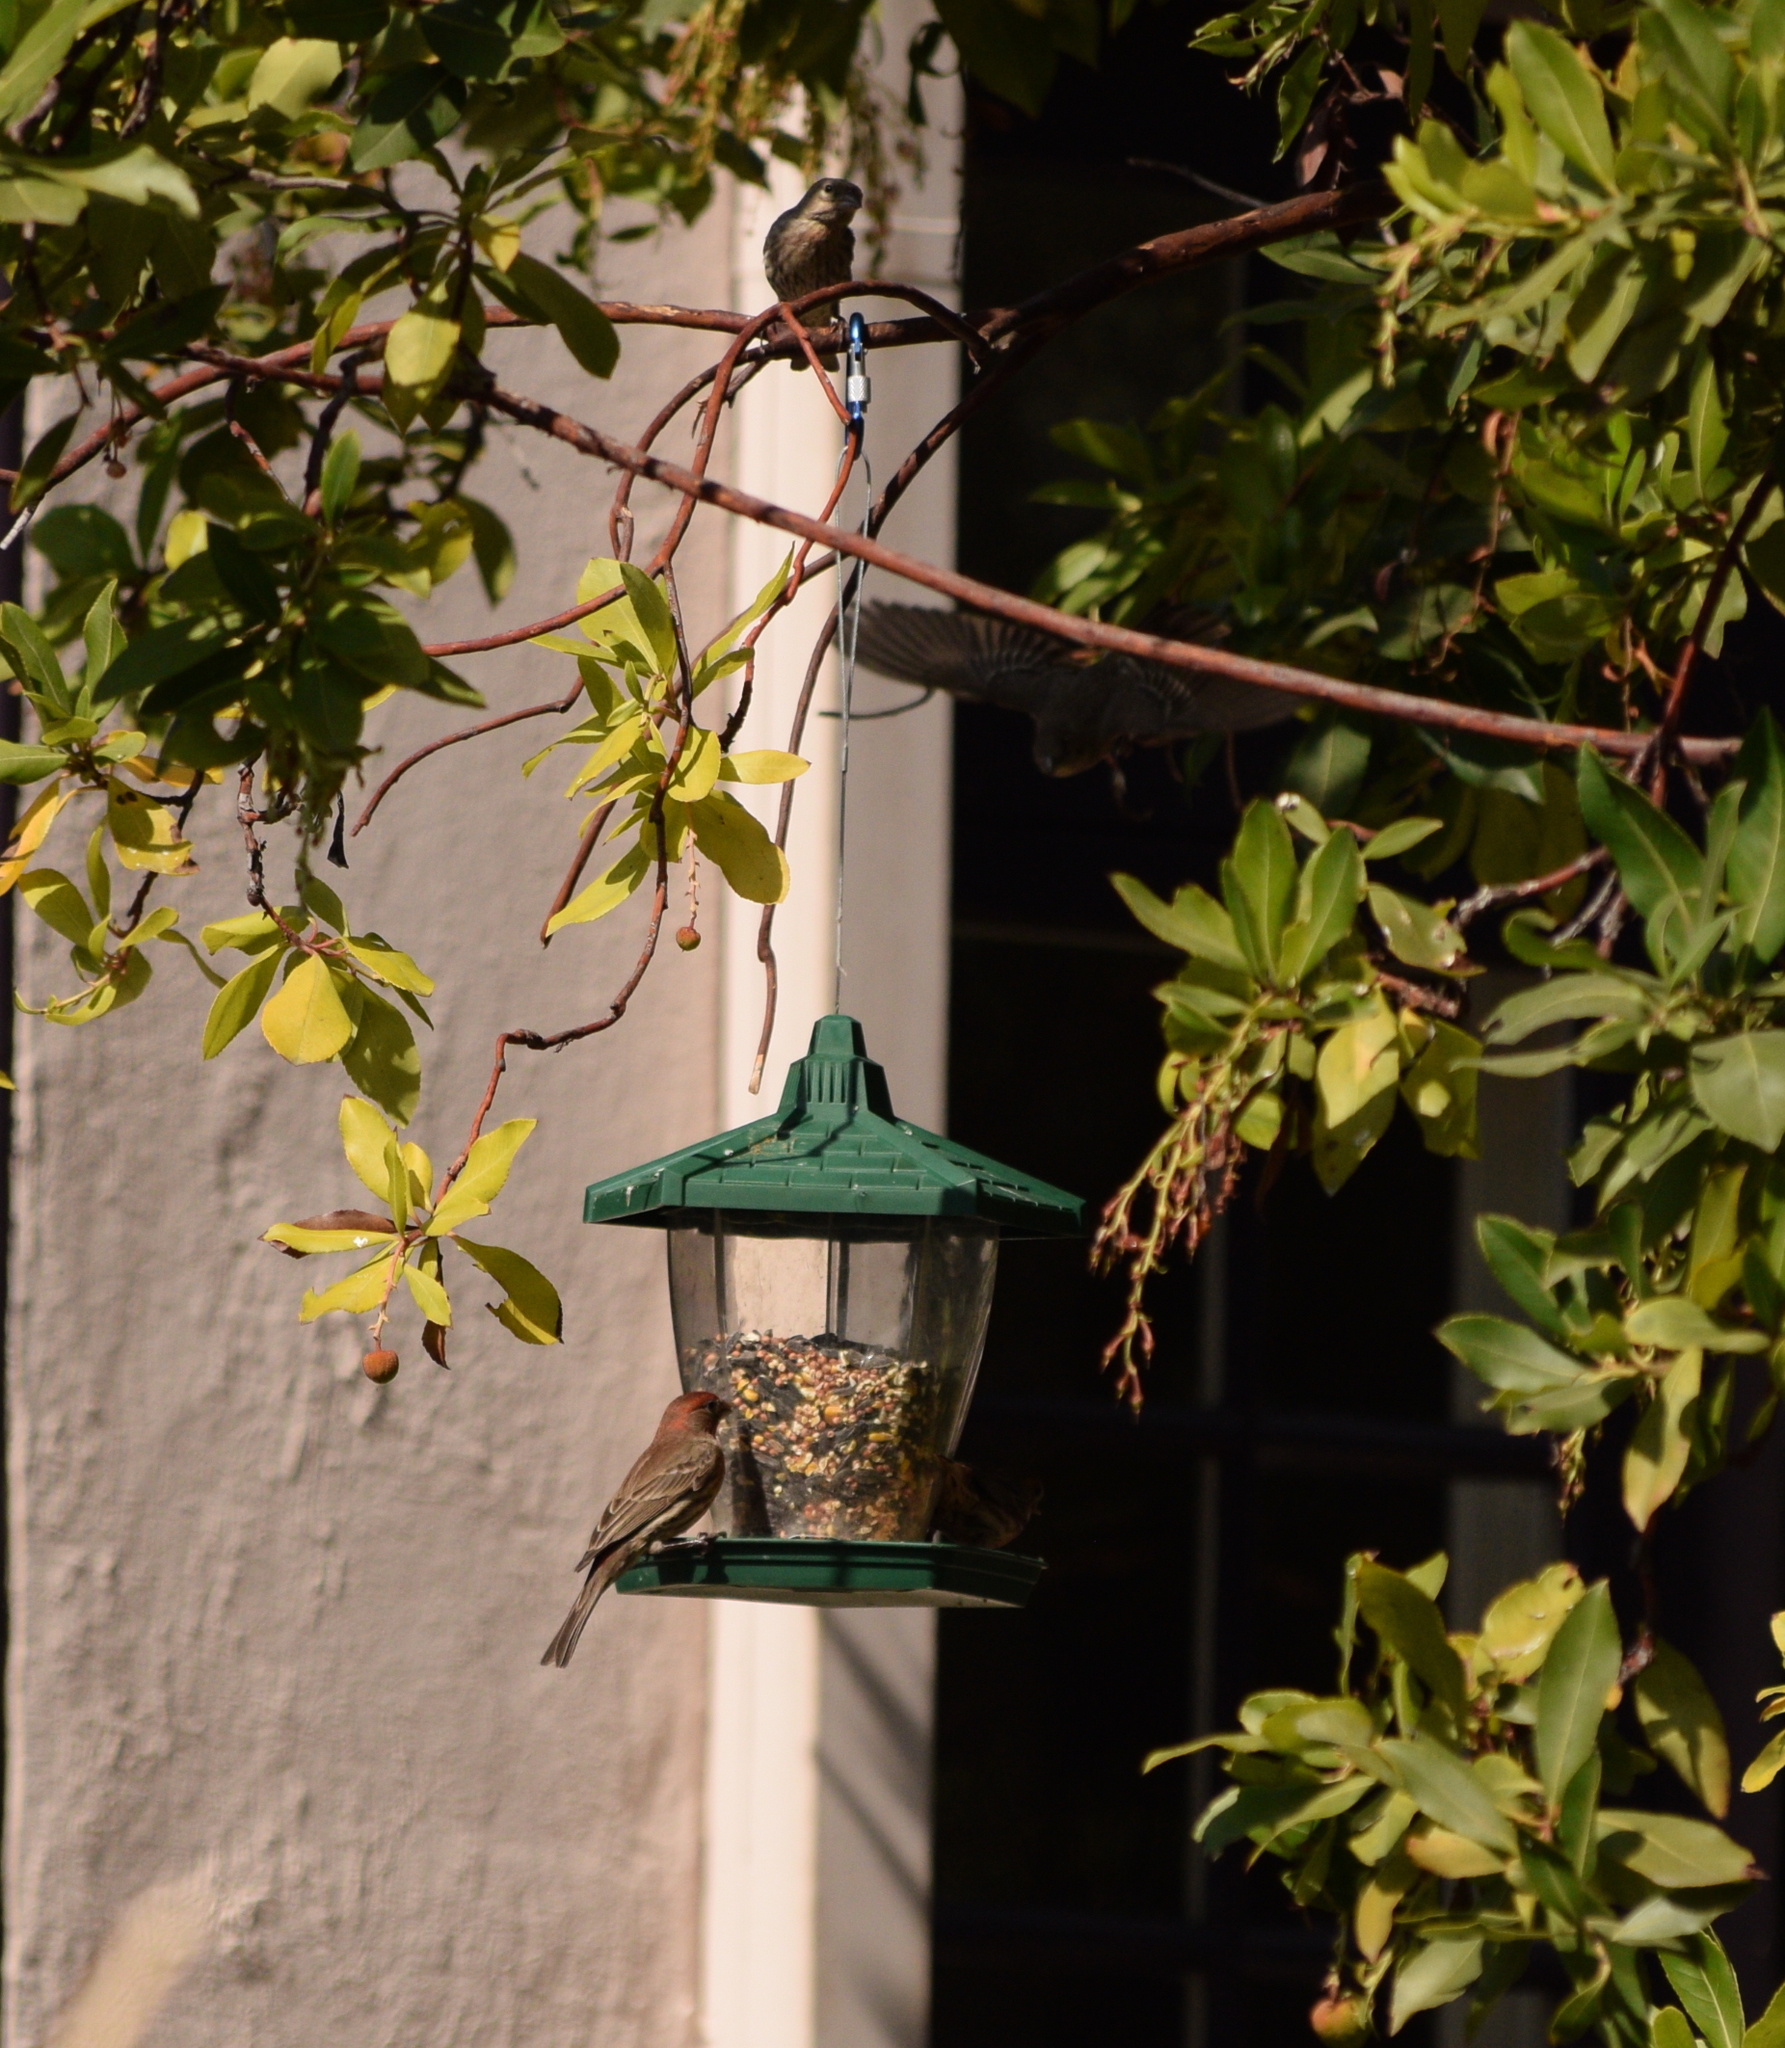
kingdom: Animalia
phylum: Chordata
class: Aves
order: Passeriformes
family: Fringillidae
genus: Haemorhous
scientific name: Haemorhous mexicanus
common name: House finch
